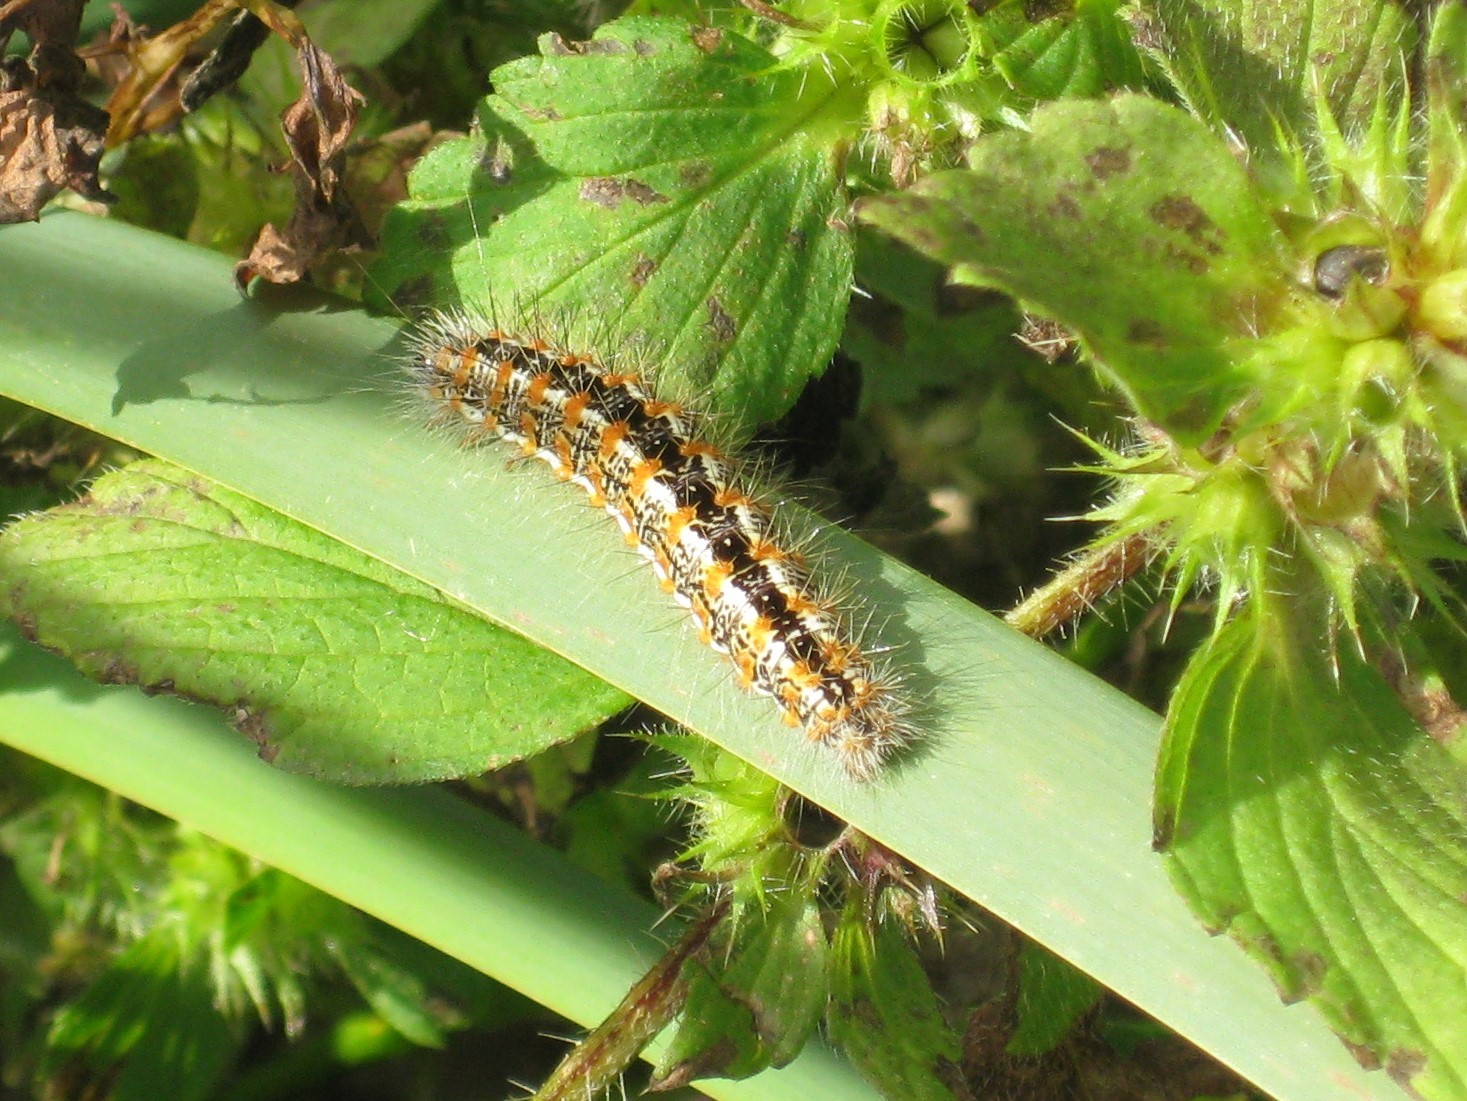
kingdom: Animalia
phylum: Arthropoda
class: Insecta
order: Lepidoptera
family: Noctuidae
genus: Acronicta
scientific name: Acronicta insularis
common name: Henry's marsh moth
